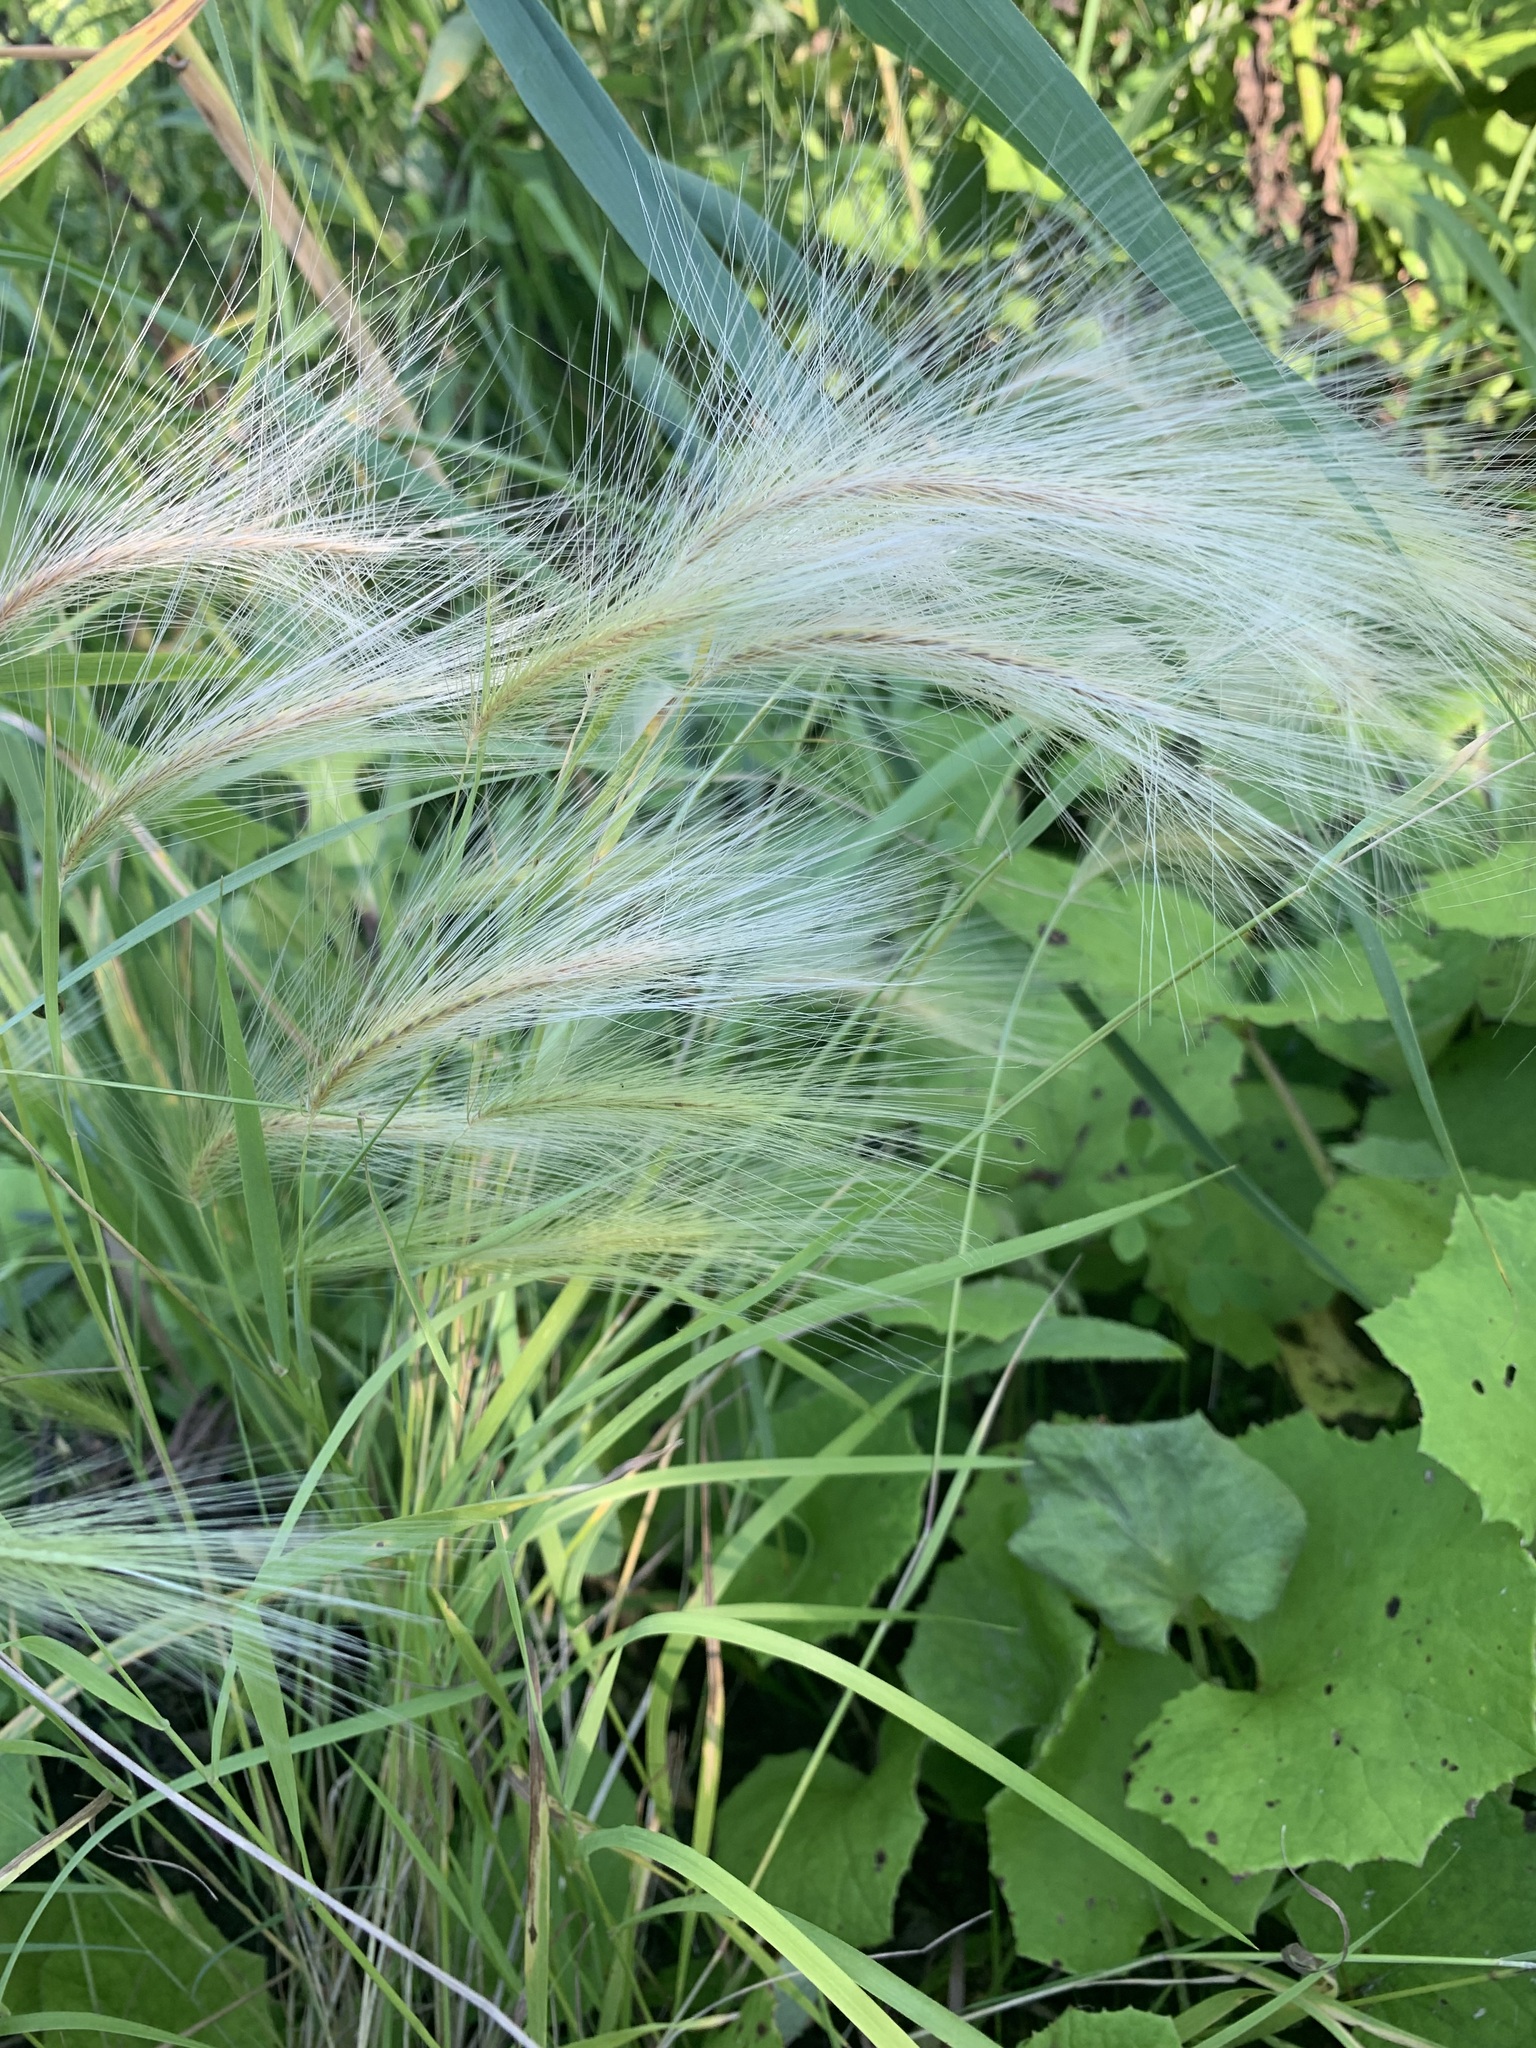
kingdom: Plantae
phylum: Tracheophyta
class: Liliopsida
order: Poales
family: Poaceae
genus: Hordeum
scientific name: Hordeum jubatum
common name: Foxtail barley
